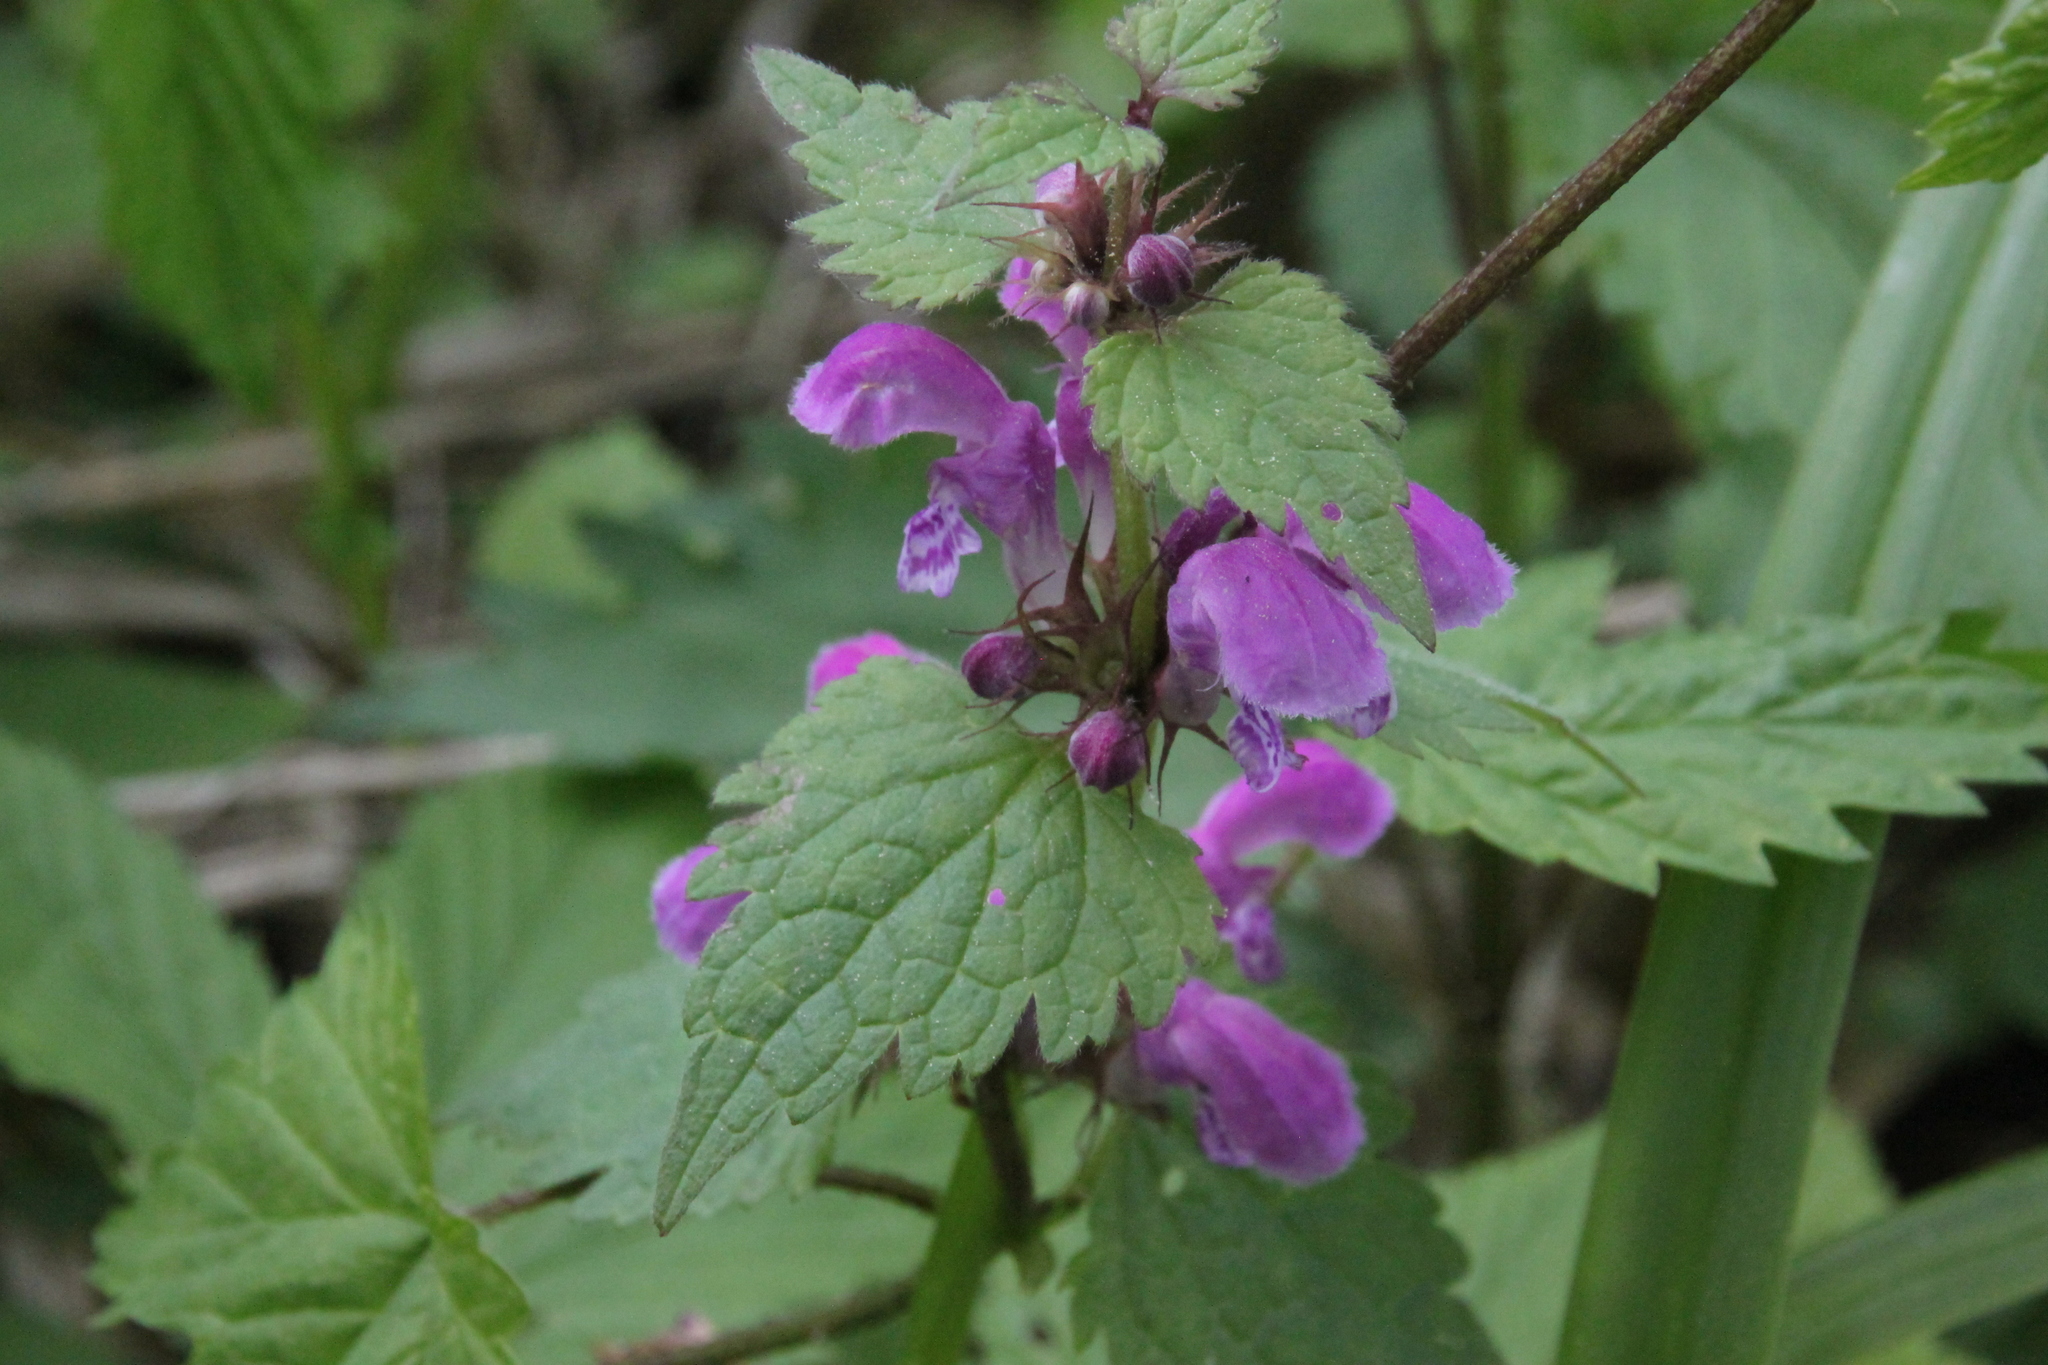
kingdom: Plantae
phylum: Tracheophyta
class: Magnoliopsida
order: Lamiales
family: Lamiaceae
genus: Lamium
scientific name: Lamium maculatum
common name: Spotted dead-nettle
